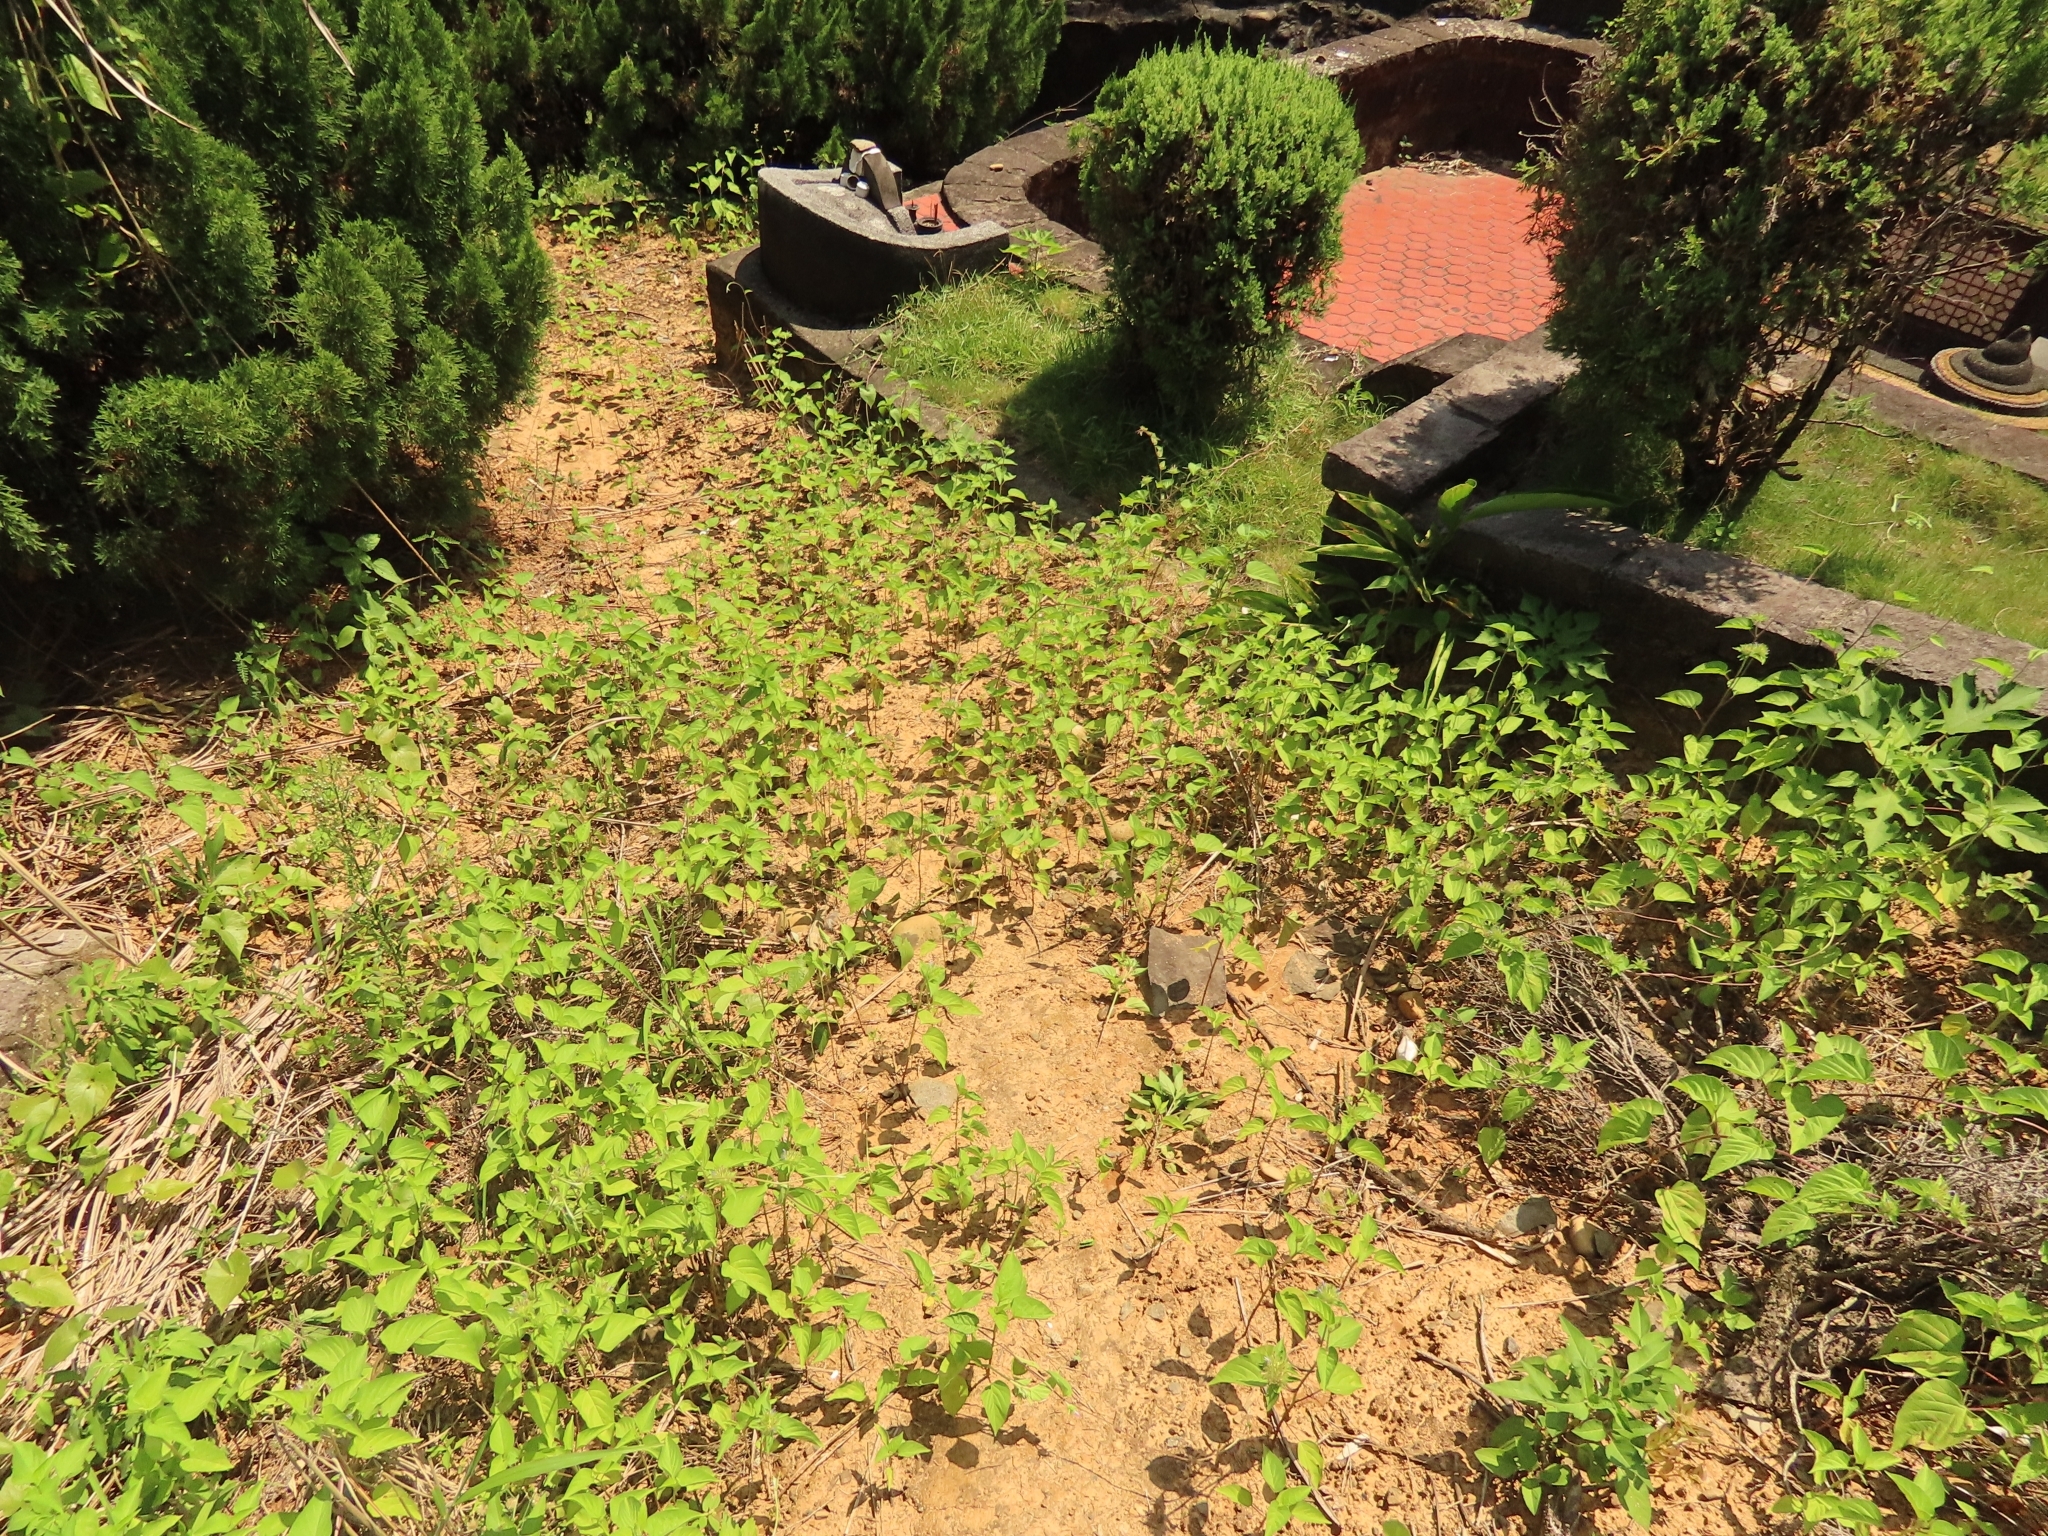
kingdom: Plantae
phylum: Tracheophyta
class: Magnoliopsida
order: Solanales
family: Convolvulaceae
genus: Jacquemontia
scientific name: Jacquemontia tamnifolia
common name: Hairy clustervine
